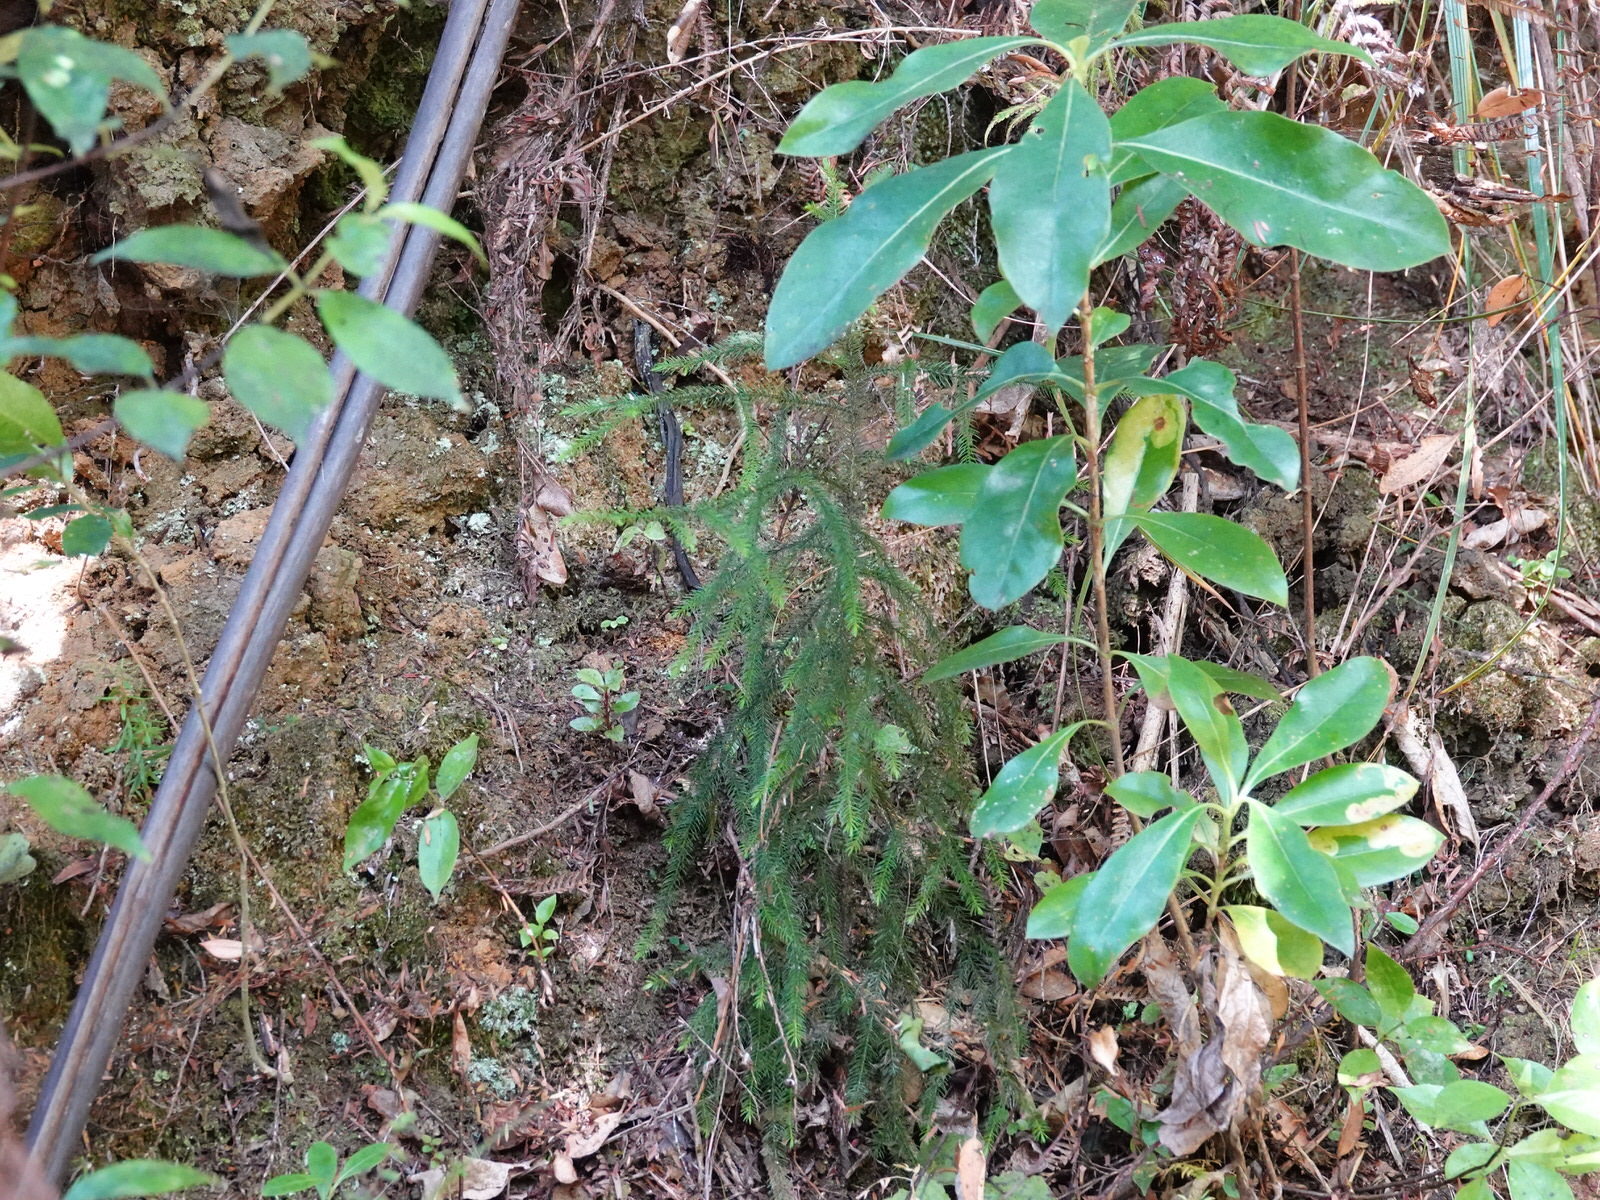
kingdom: Plantae
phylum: Tracheophyta
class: Pinopsida
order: Pinales
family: Podocarpaceae
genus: Dacrydium
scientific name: Dacrydium cupressinum
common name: Red pine
